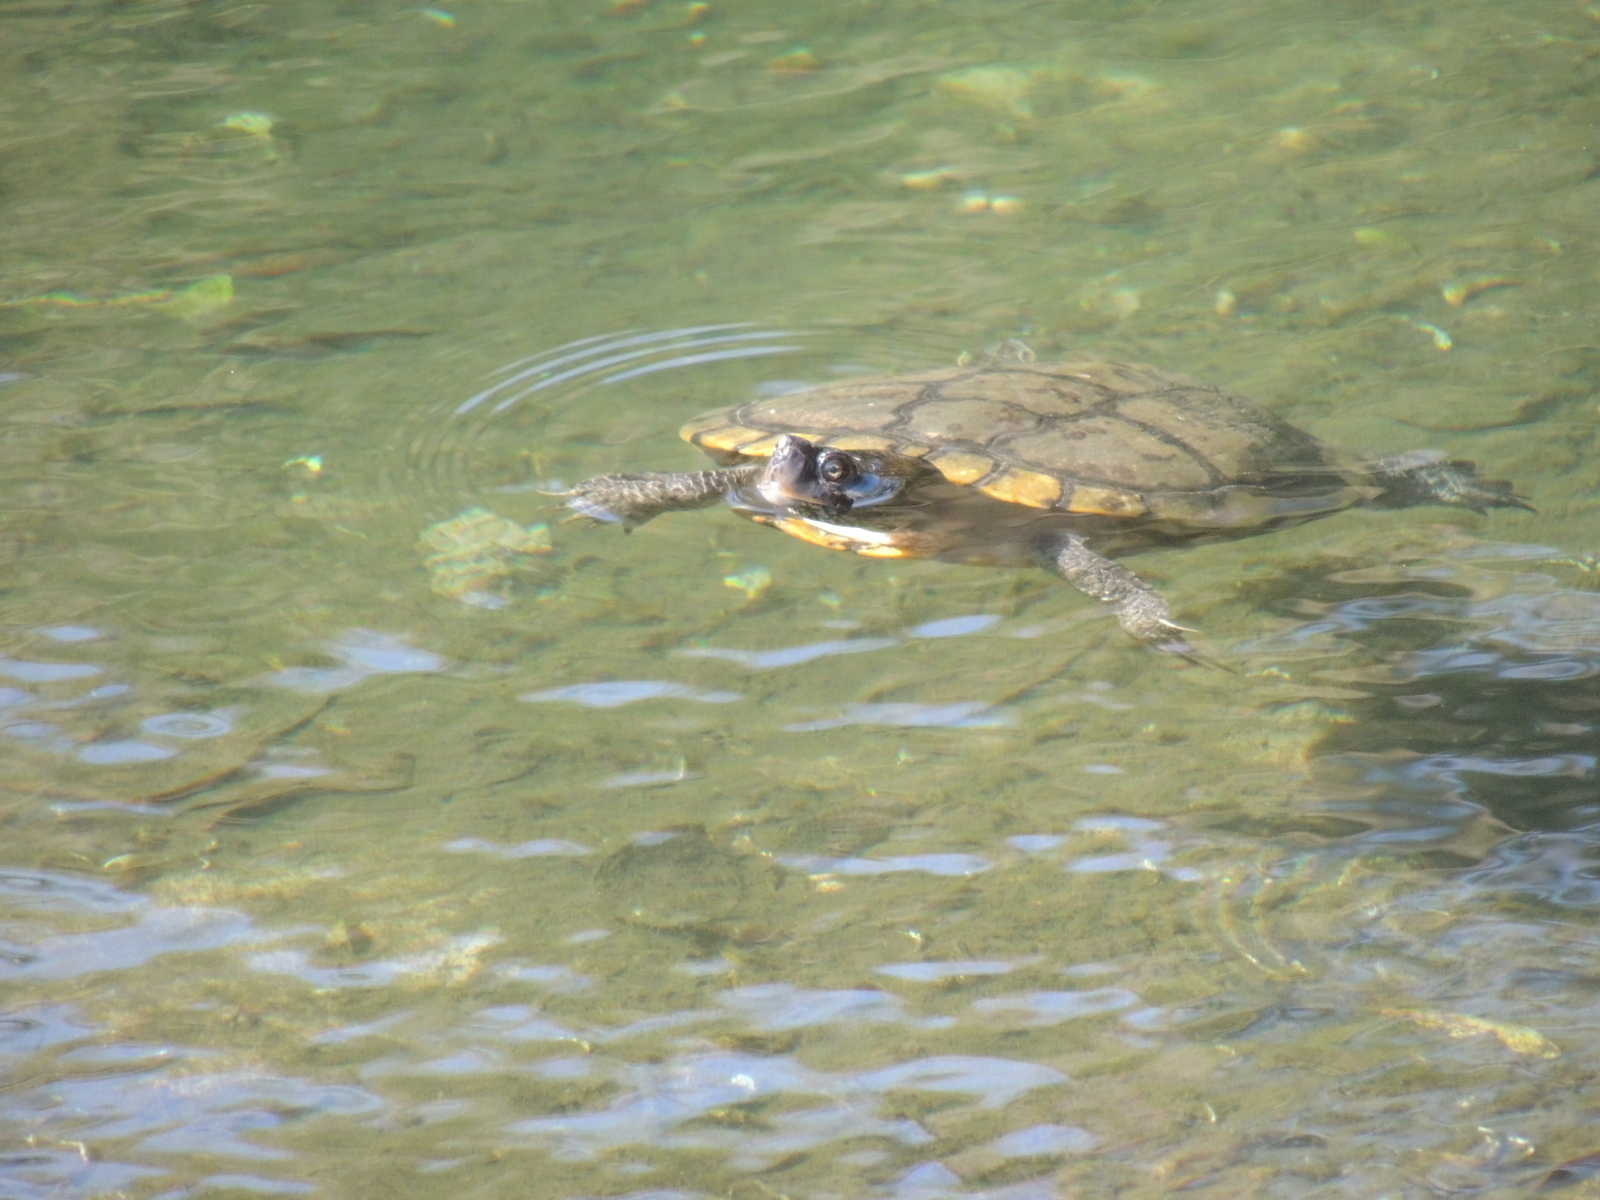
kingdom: Animalia
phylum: Chordata
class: Testudines
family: Emydidae
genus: Trachemys
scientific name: Trachemys scripta
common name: Slider
